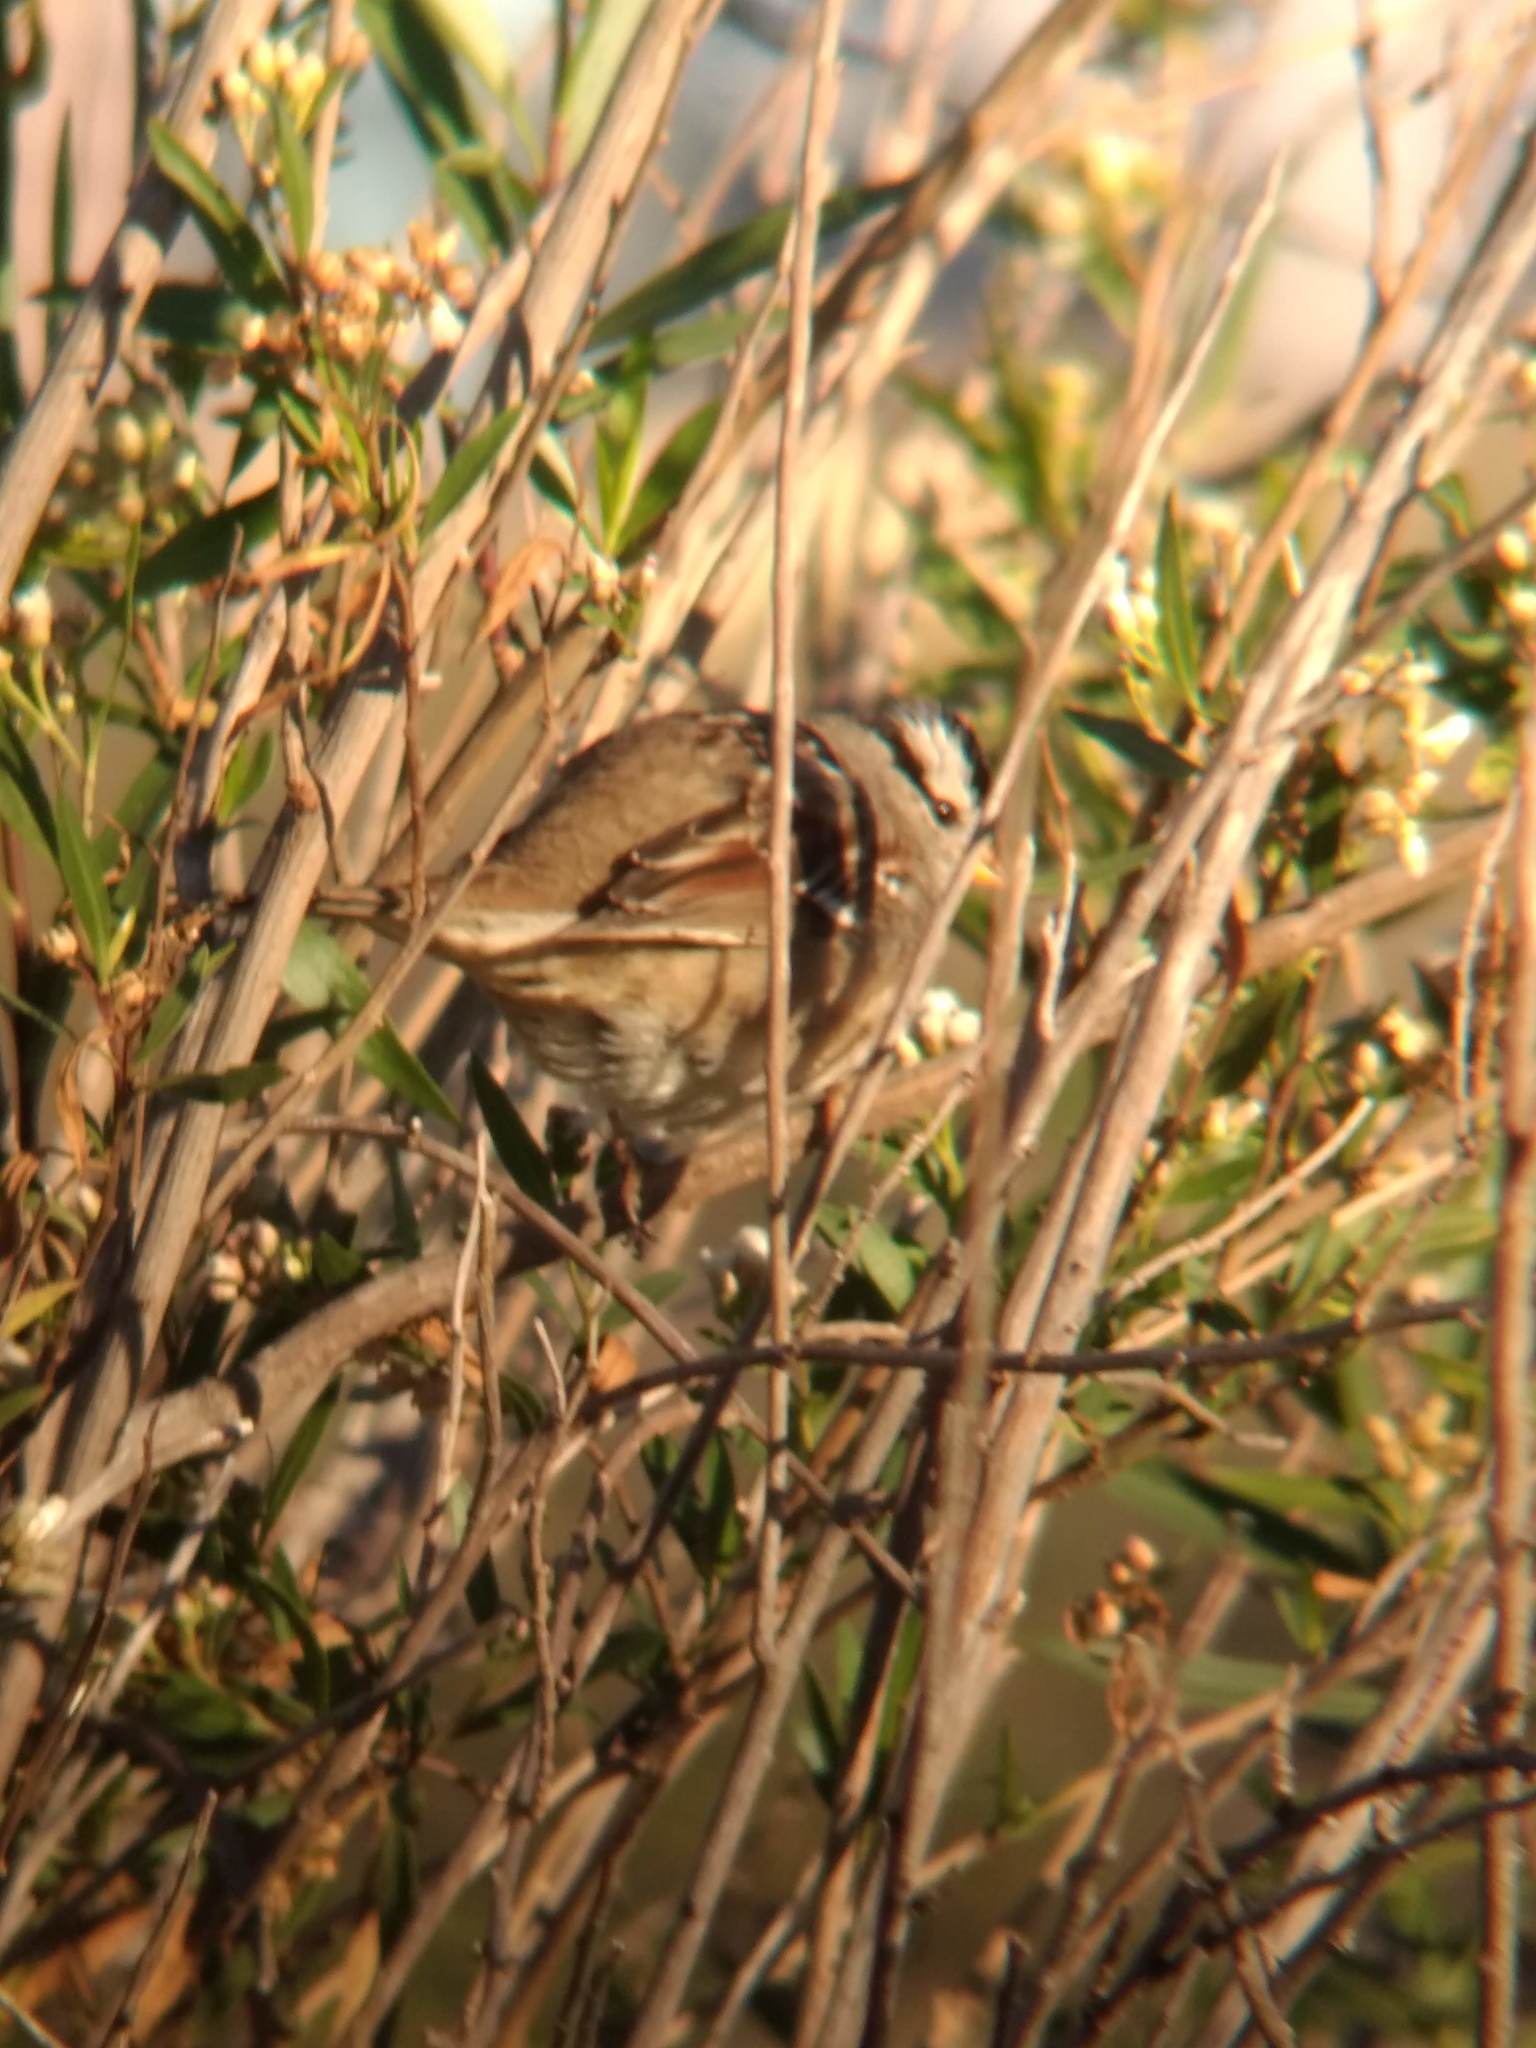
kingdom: Animalia
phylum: Chordata
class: Aves
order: Passeriformes
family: Passerellidae
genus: Zonotrichia
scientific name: Zonotrichia leucophrys
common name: White-crowned sparrow
